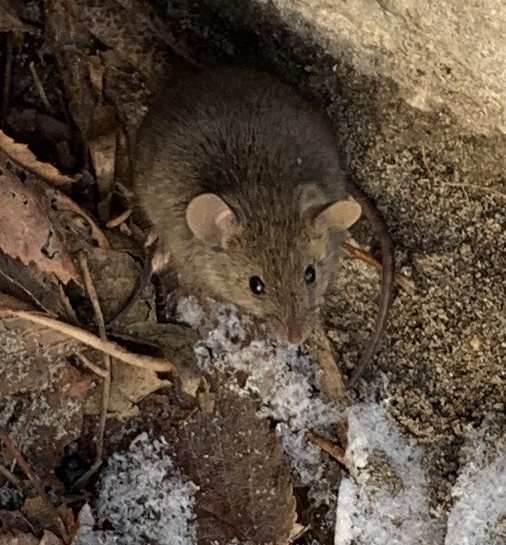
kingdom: Animalia
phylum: Chordata
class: Mammalia
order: Rodentia
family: Muridae
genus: Mus
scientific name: Mus musculus
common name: House mouse
